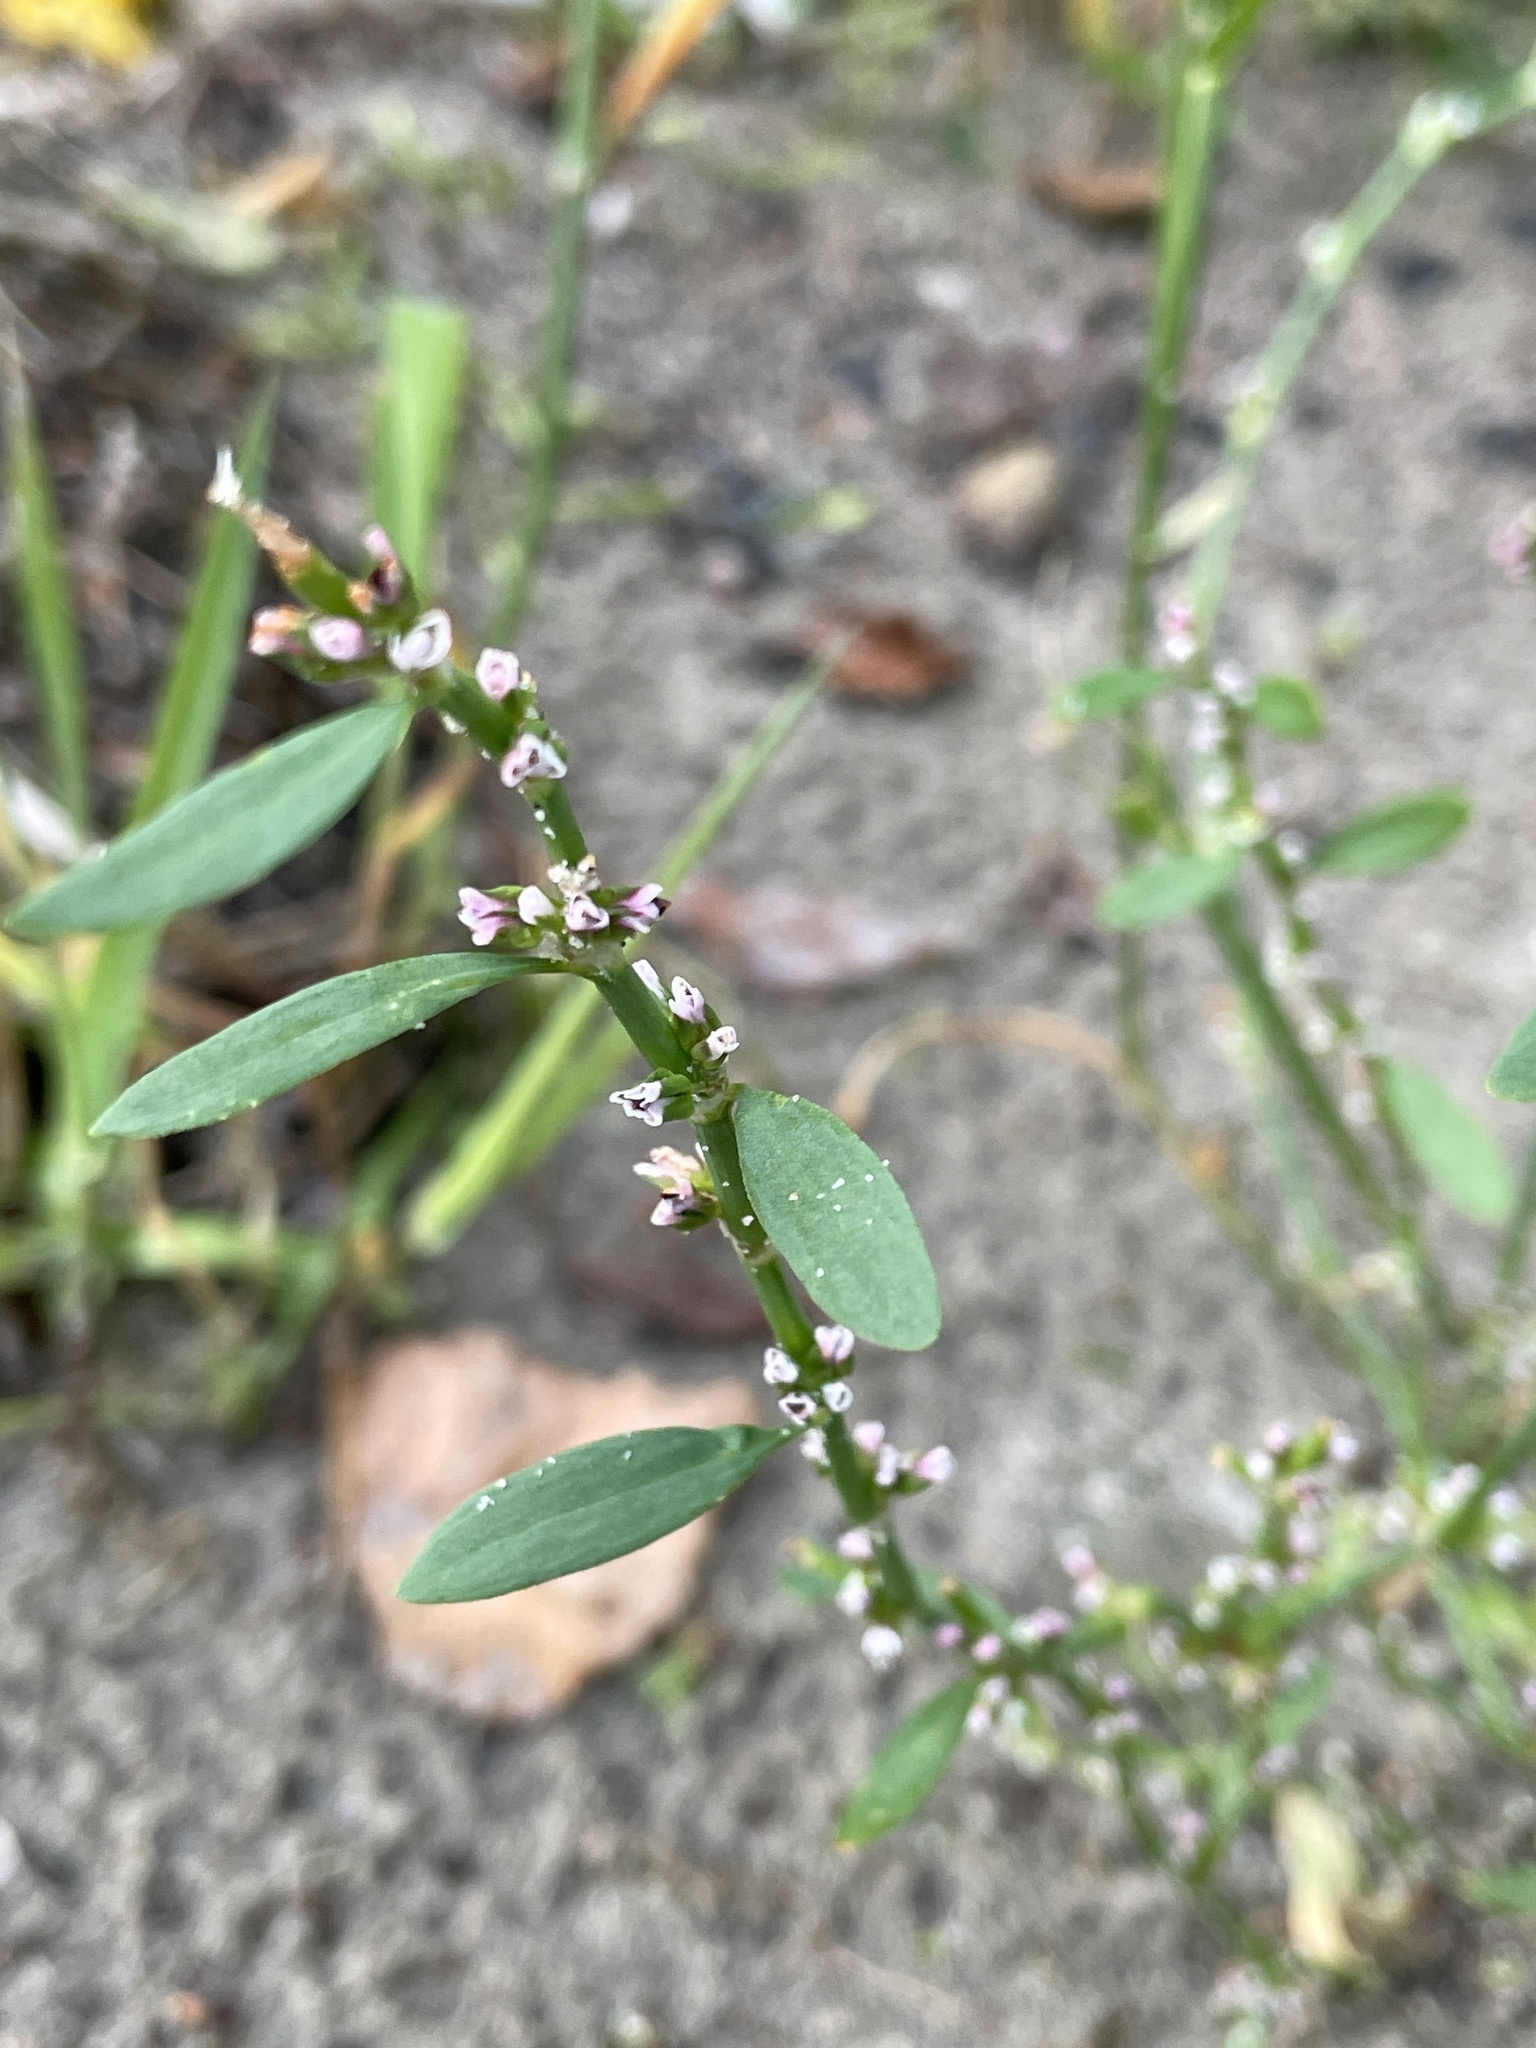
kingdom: Plantae
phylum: Tracheophyta
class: Magnoliopsida
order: Caryophyllales
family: Polygonaceae
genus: Polygonum
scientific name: Polygonum aviculare
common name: Prostrate knotweed
